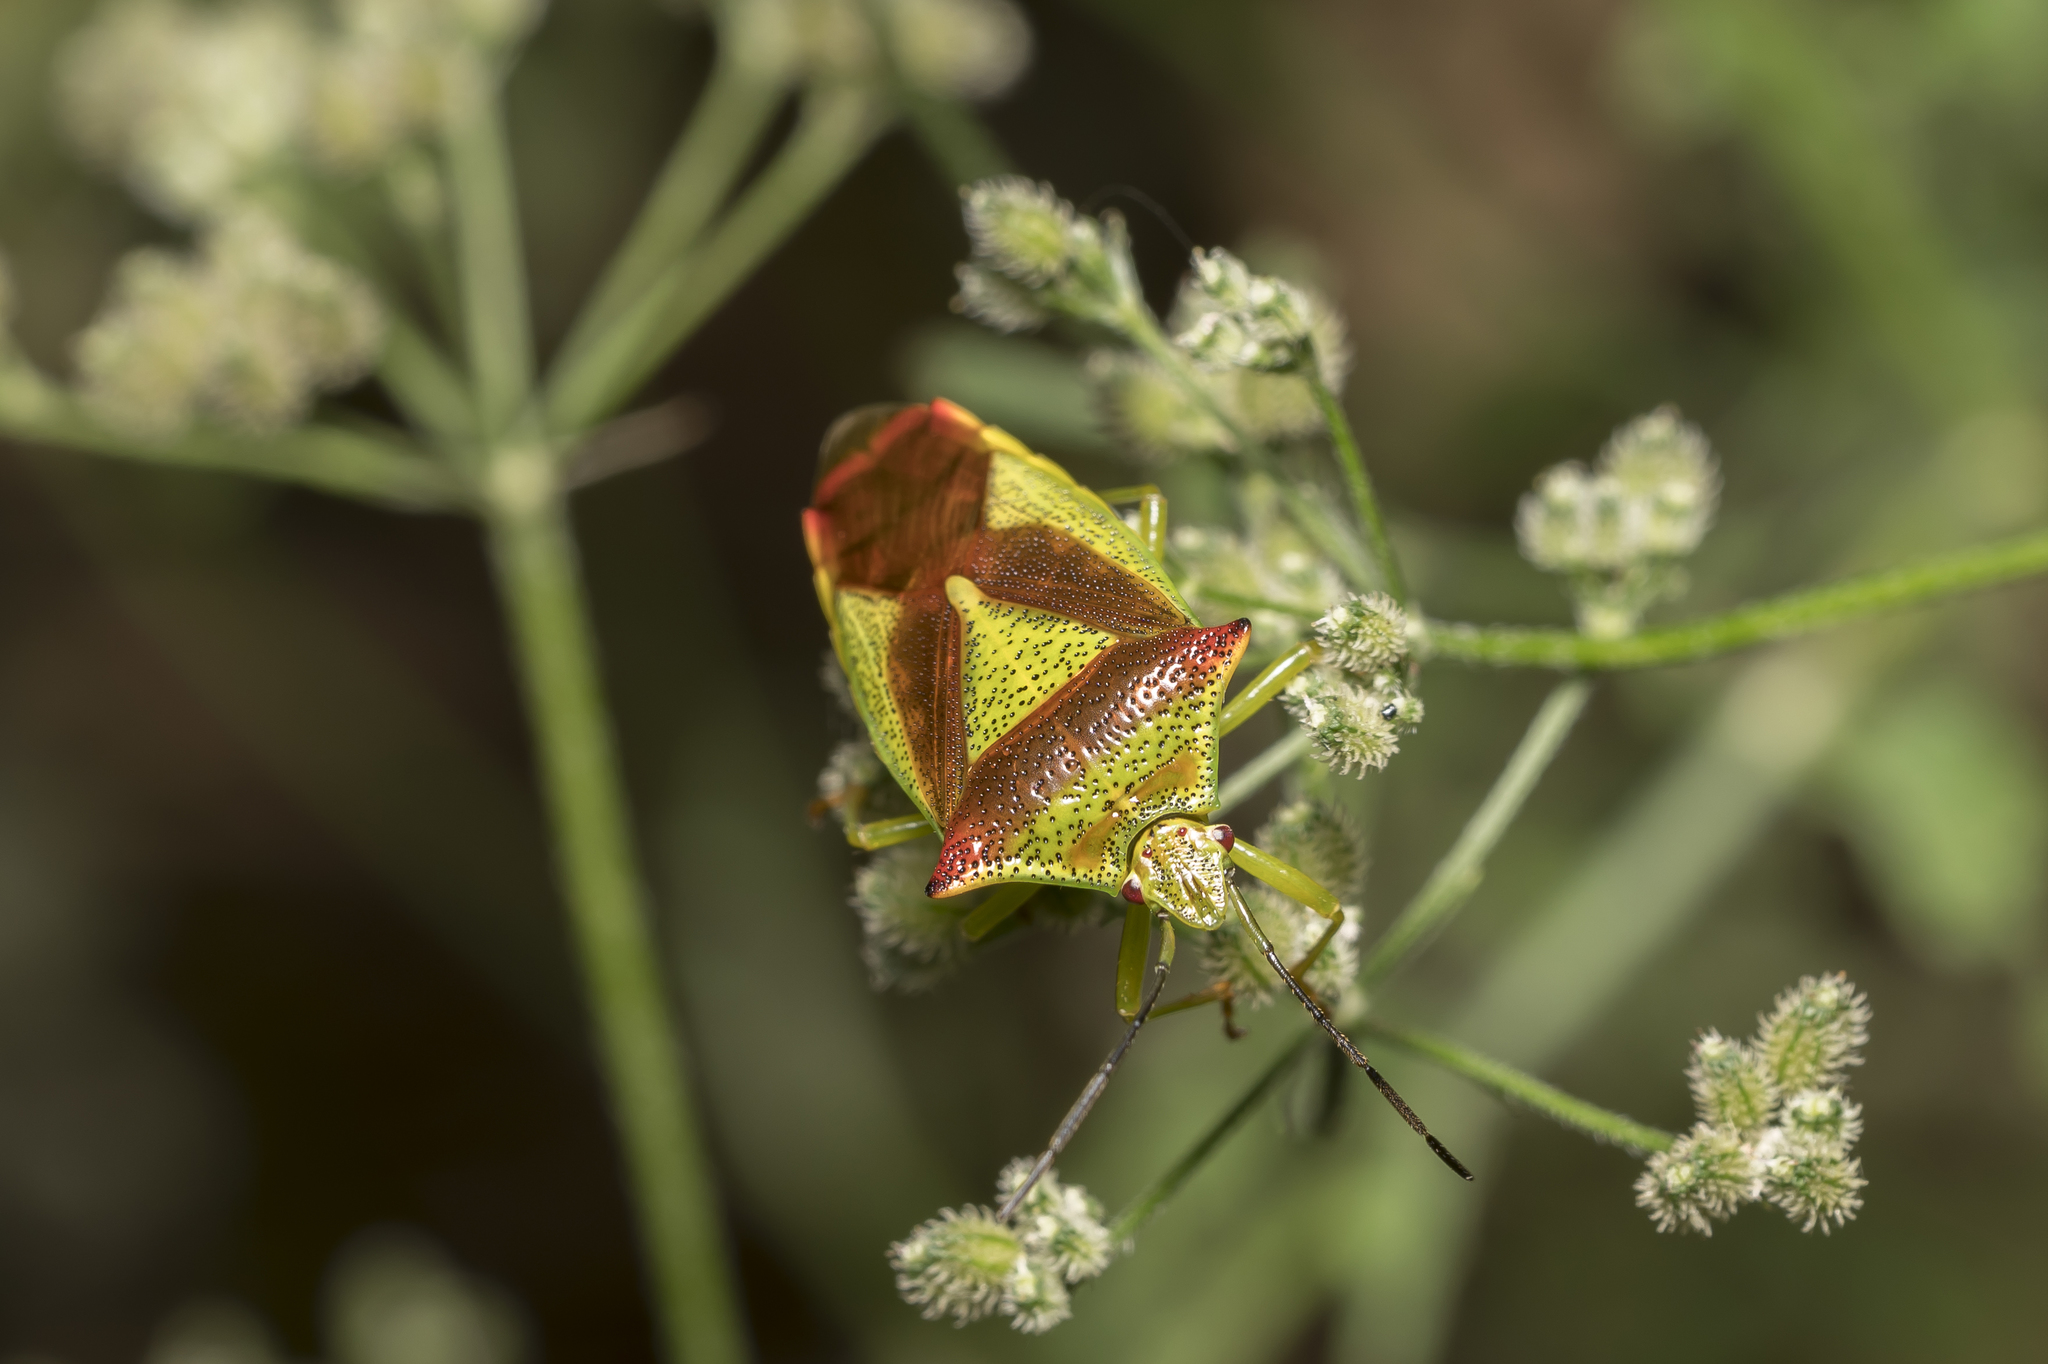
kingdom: Animalia
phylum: Arthropoda
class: Insecta
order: Hemiptera
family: Acanthosomatidae
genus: Acanthosoma
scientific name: Acanthosoma haemorrhoidale
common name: Hawthorn shieldbug
